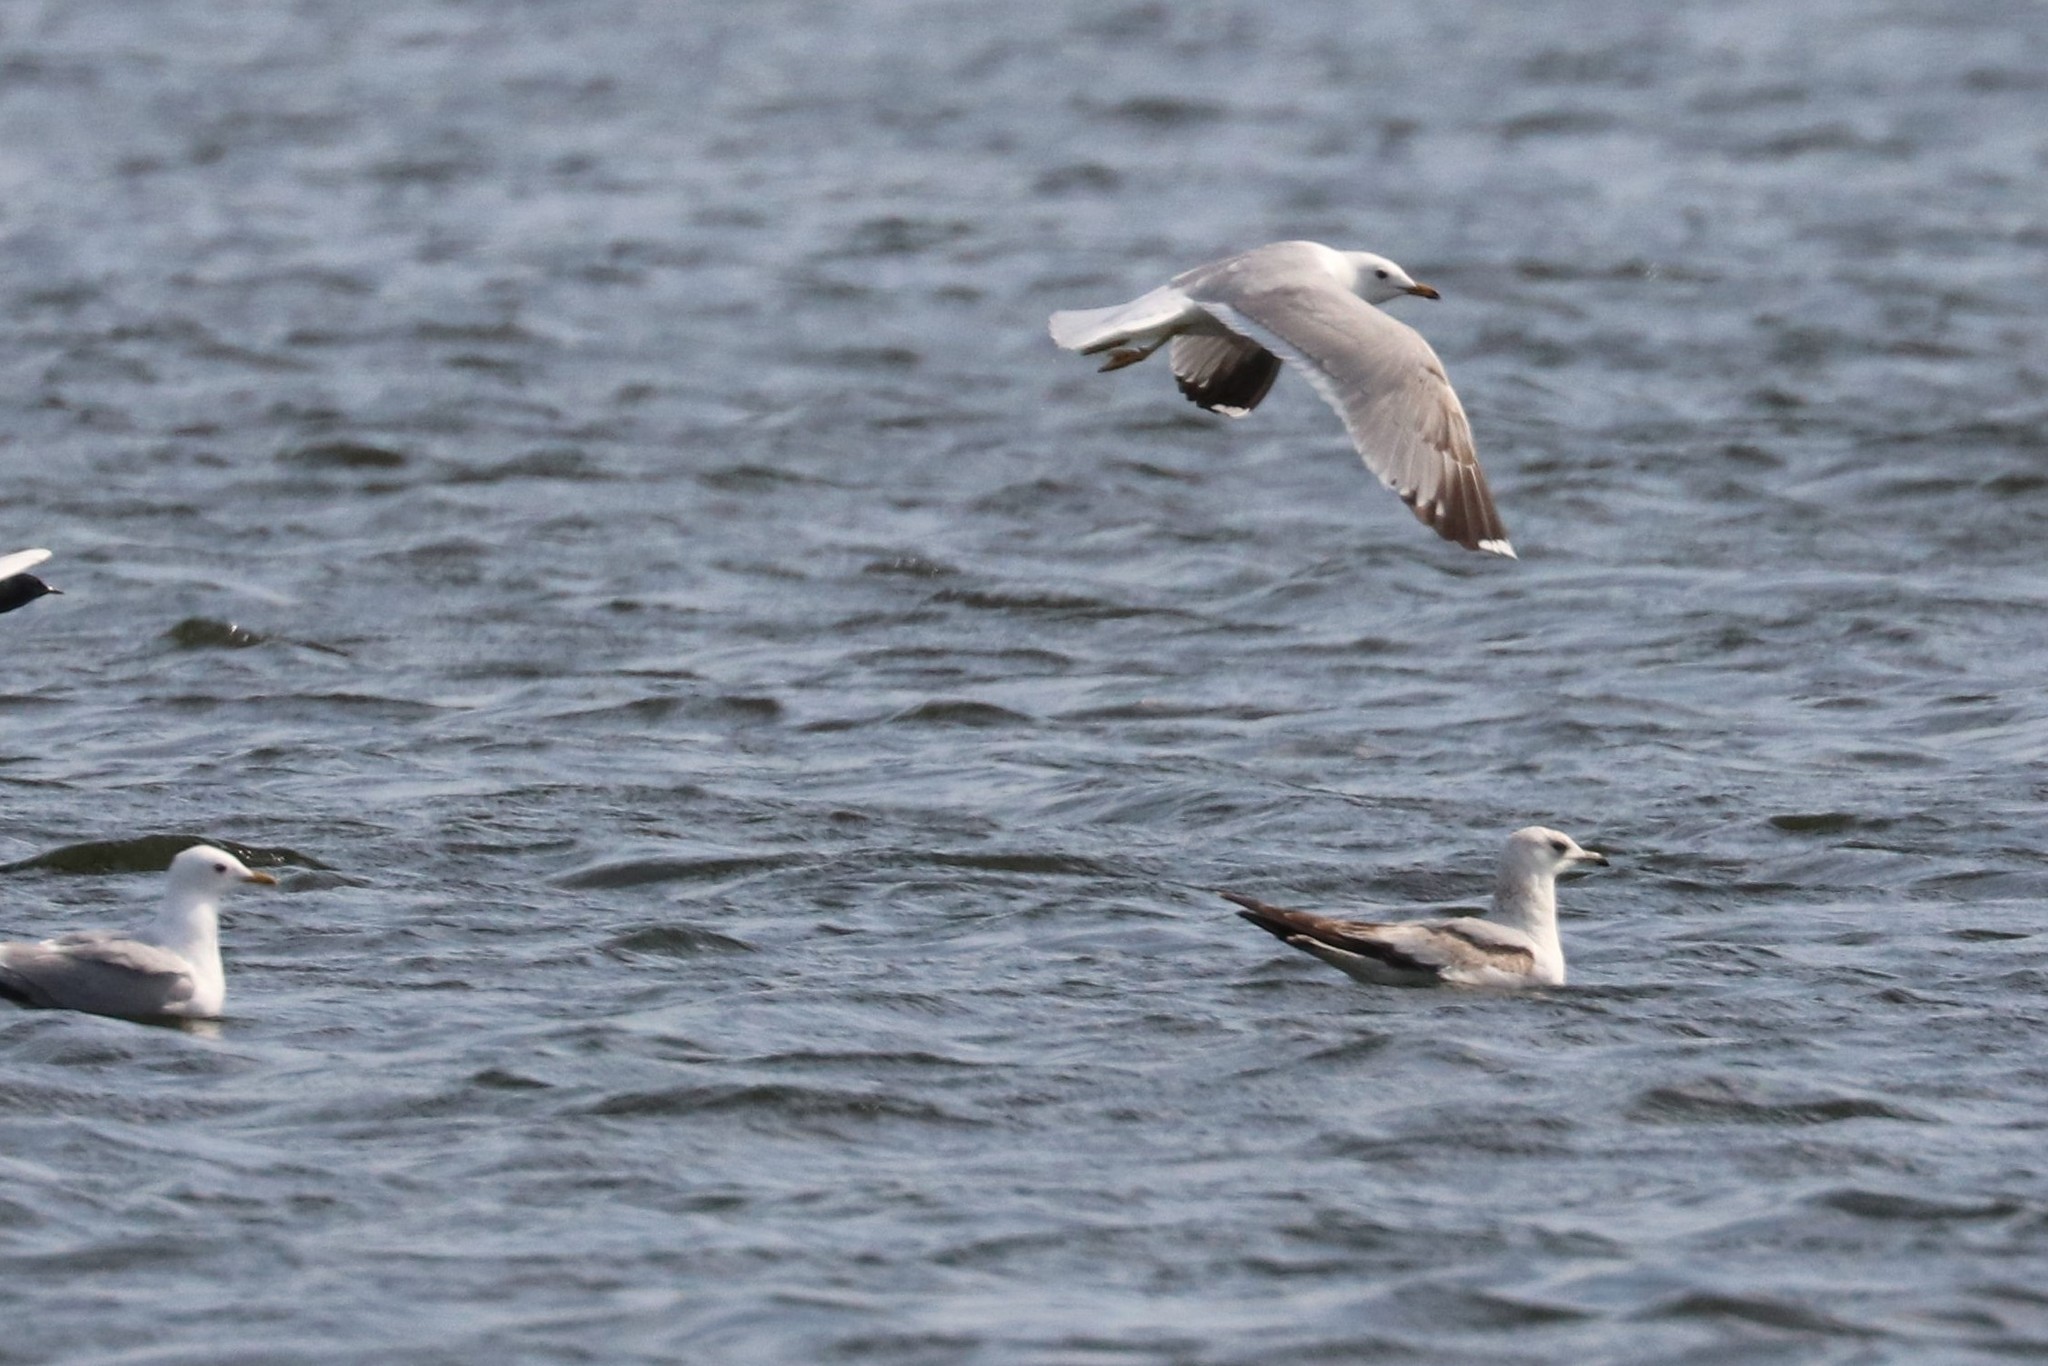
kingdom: Animalia
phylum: Chordata
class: Aves
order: Charadriiformes
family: Laridae
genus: Larus
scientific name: Larus canus
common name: Mew gull
